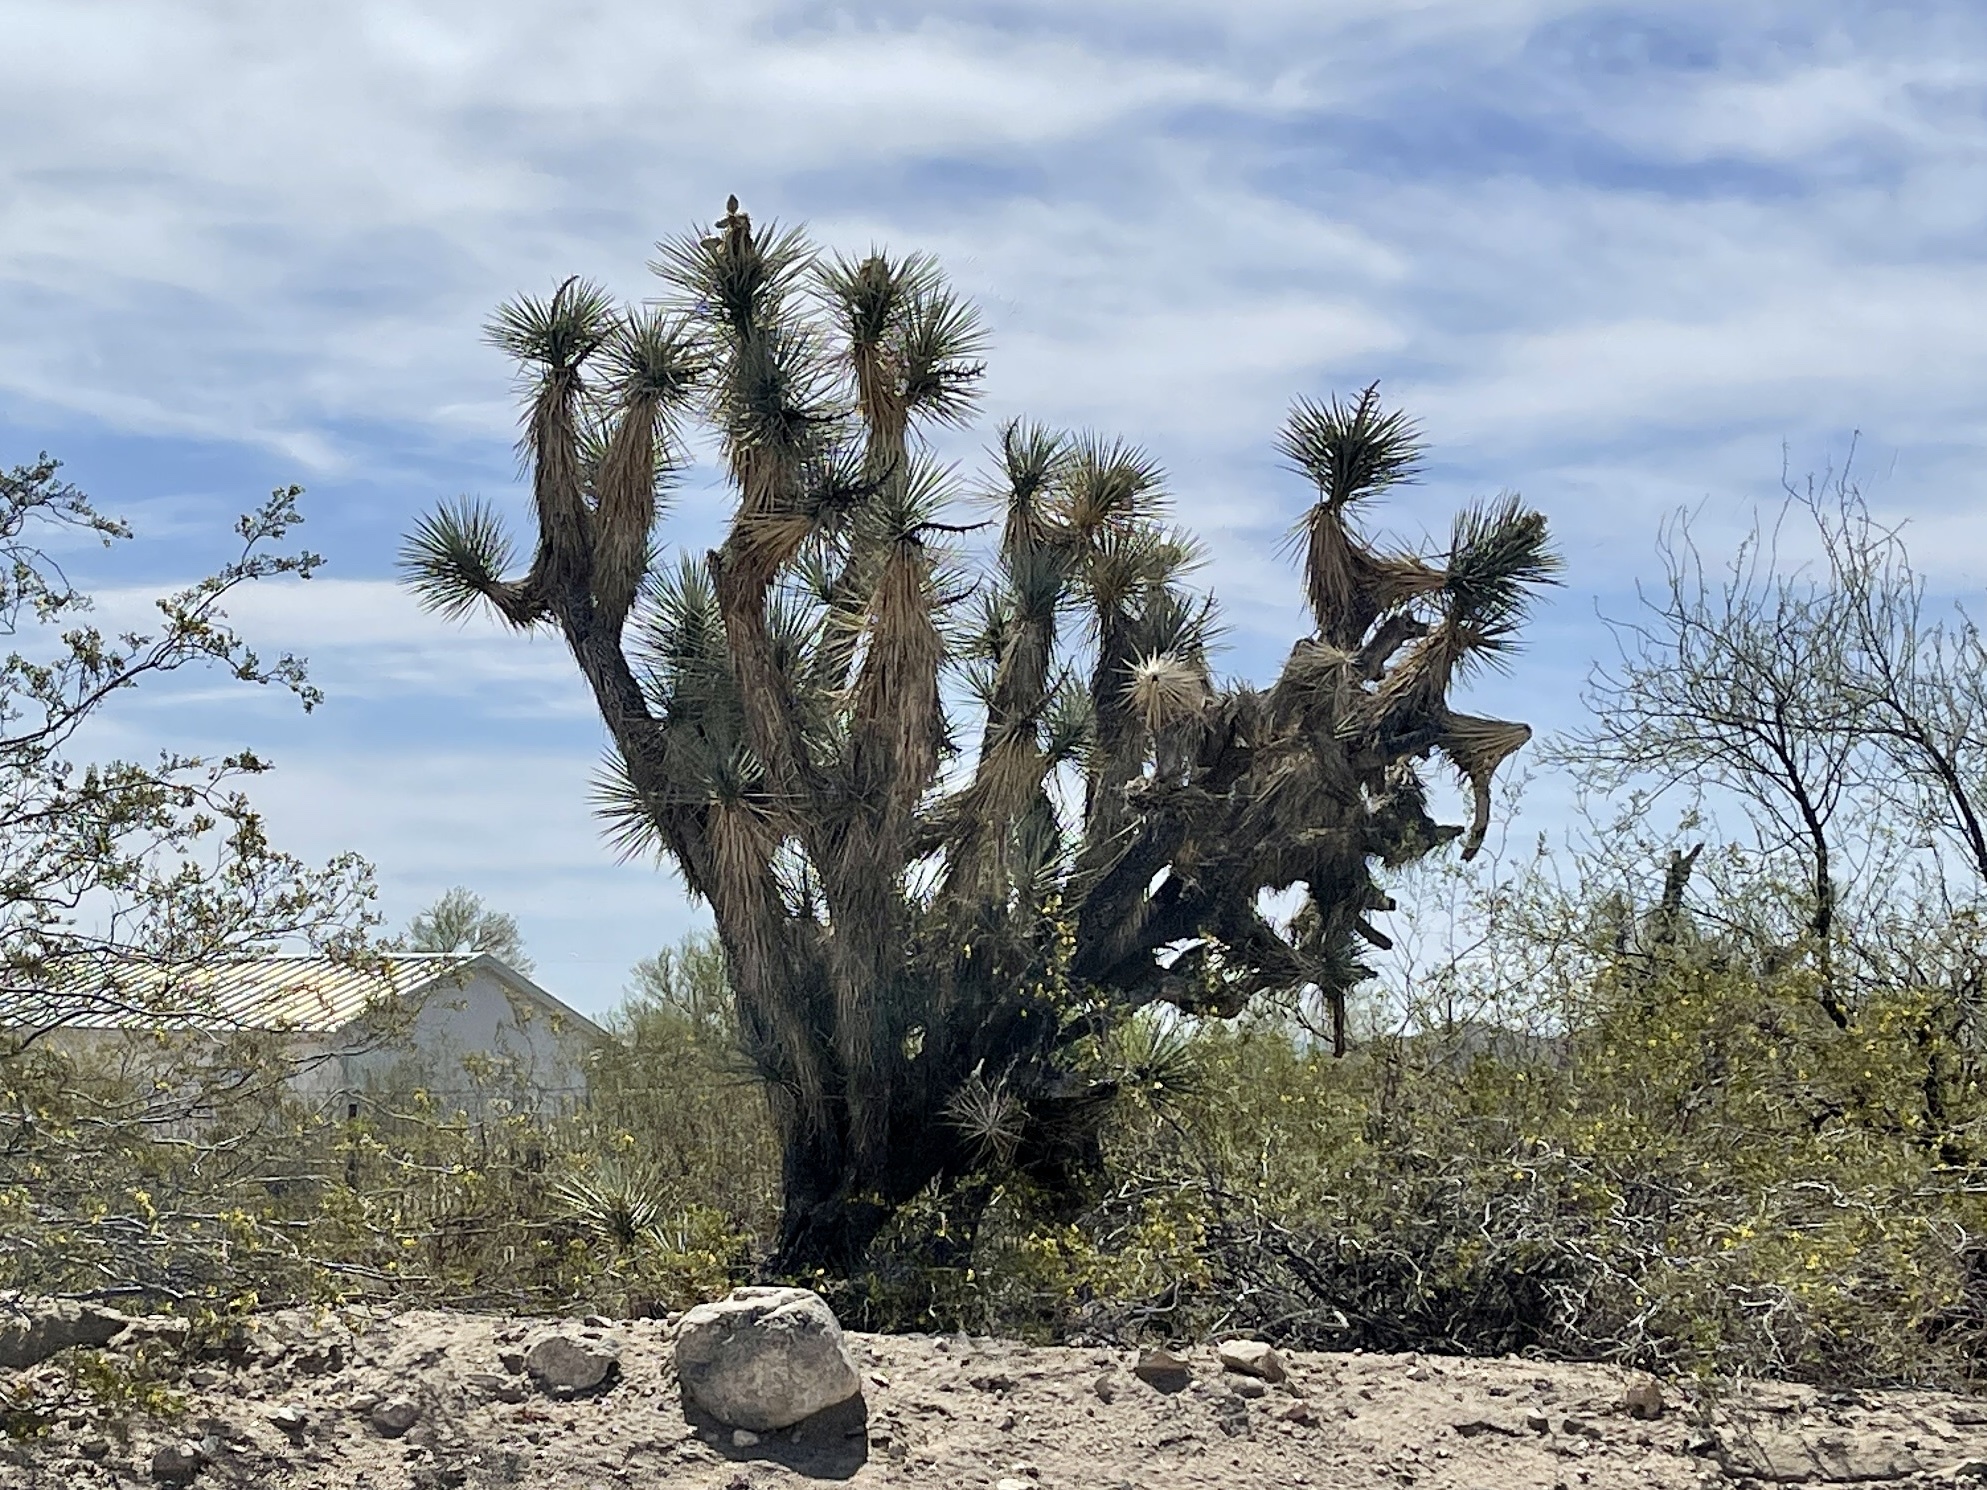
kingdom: Plantae
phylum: Tracheophyta
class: Liliopsida
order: Asparagales
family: Asparagaceae
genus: Yucca
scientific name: Yucca brevifolia
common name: Joshua tree
